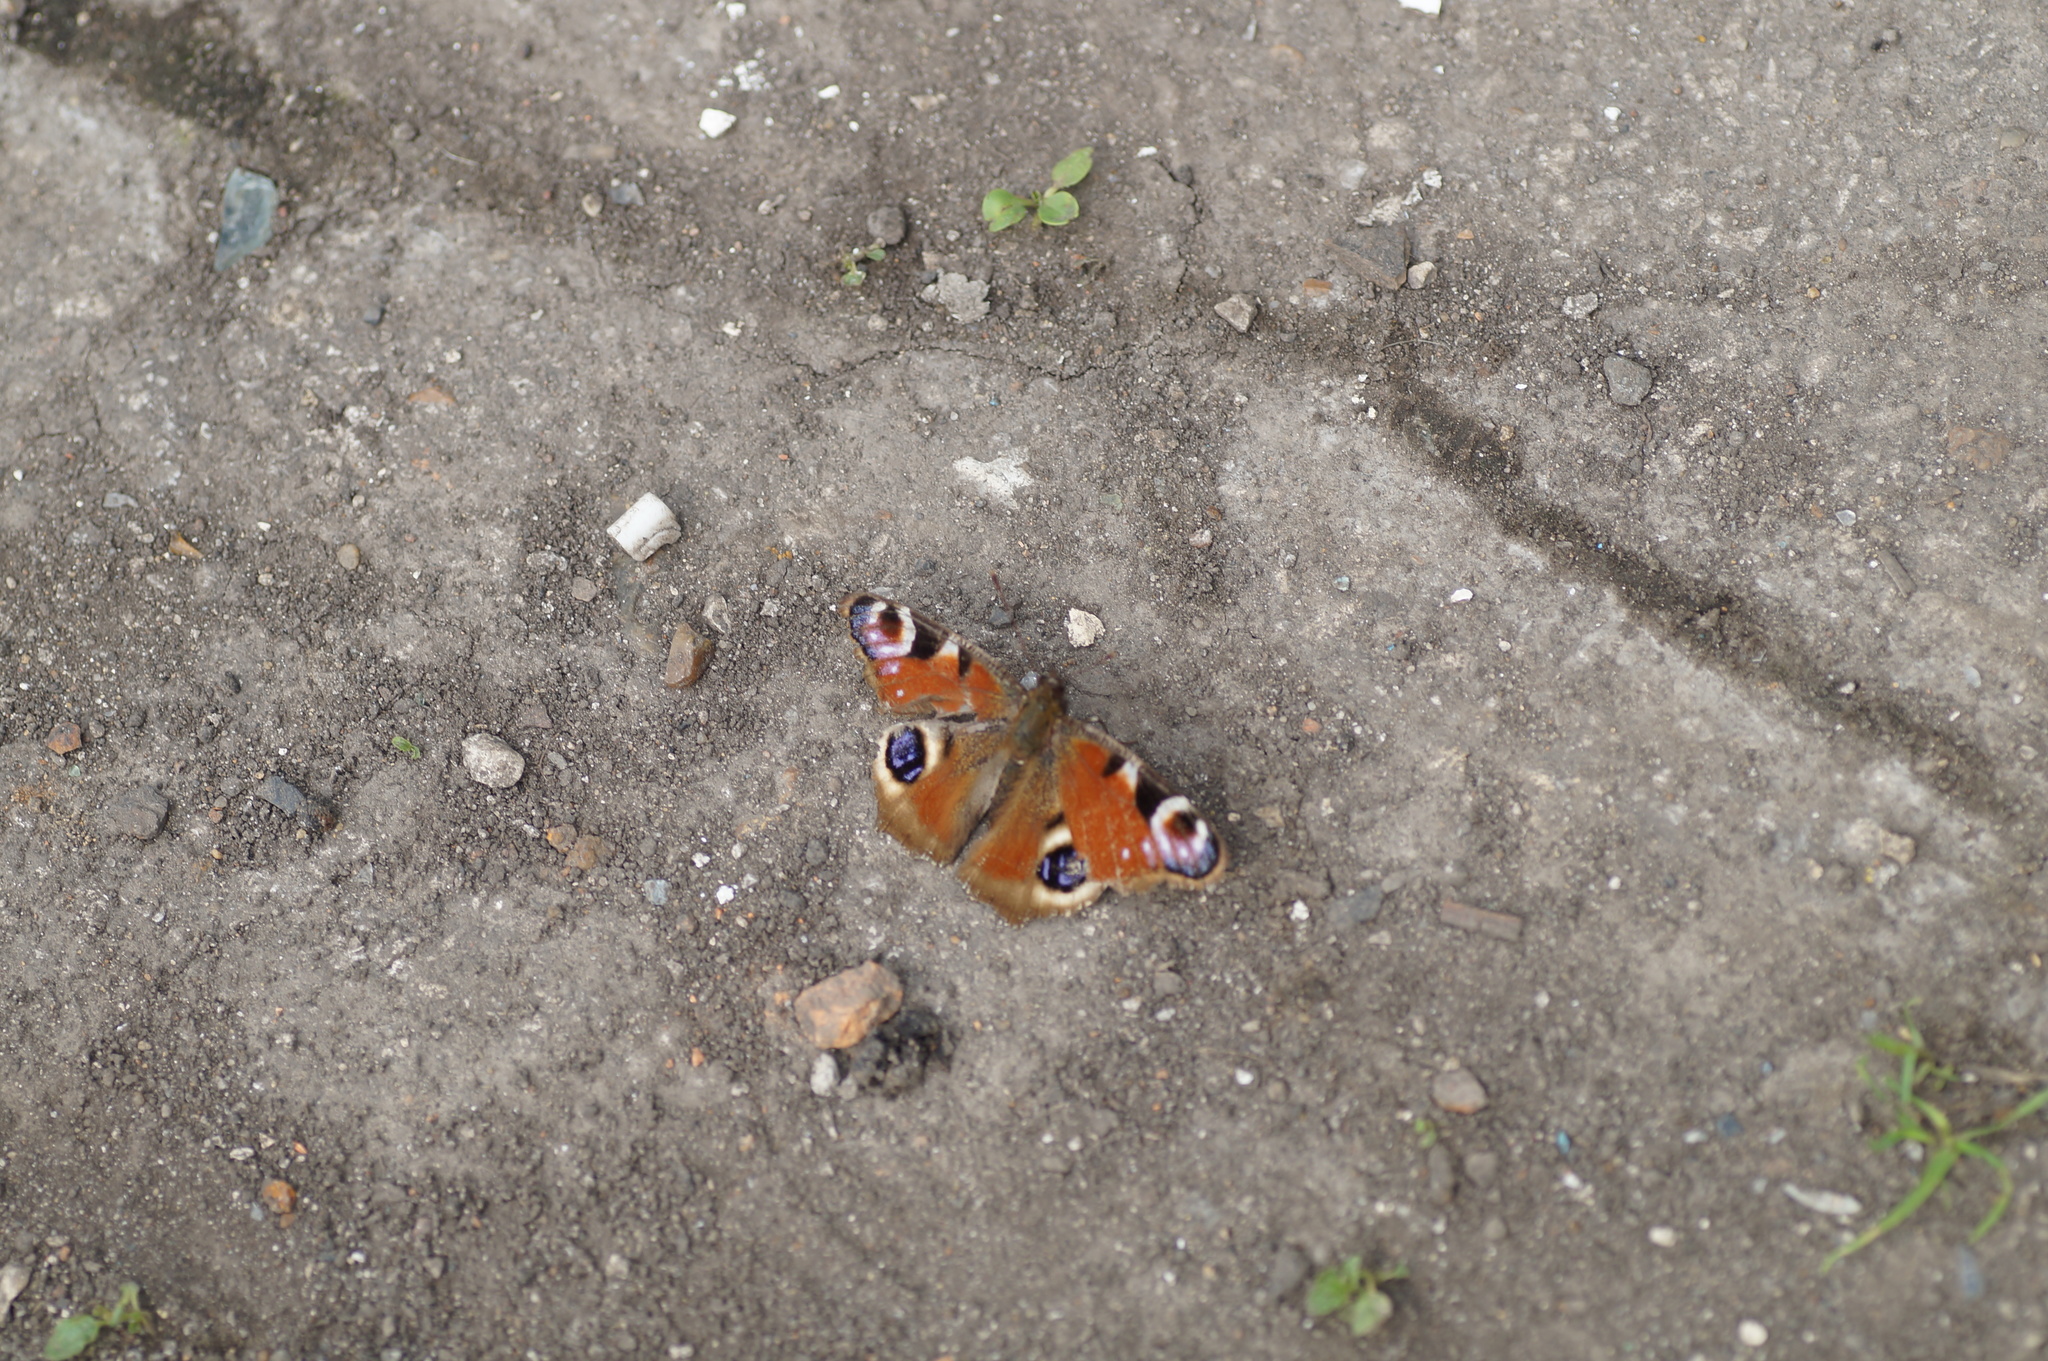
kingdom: Animalia
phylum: Arthropoda
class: Insecta
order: Lepidoptera
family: Nymphalidae
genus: Aglais
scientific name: Aglais io
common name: Peacock
